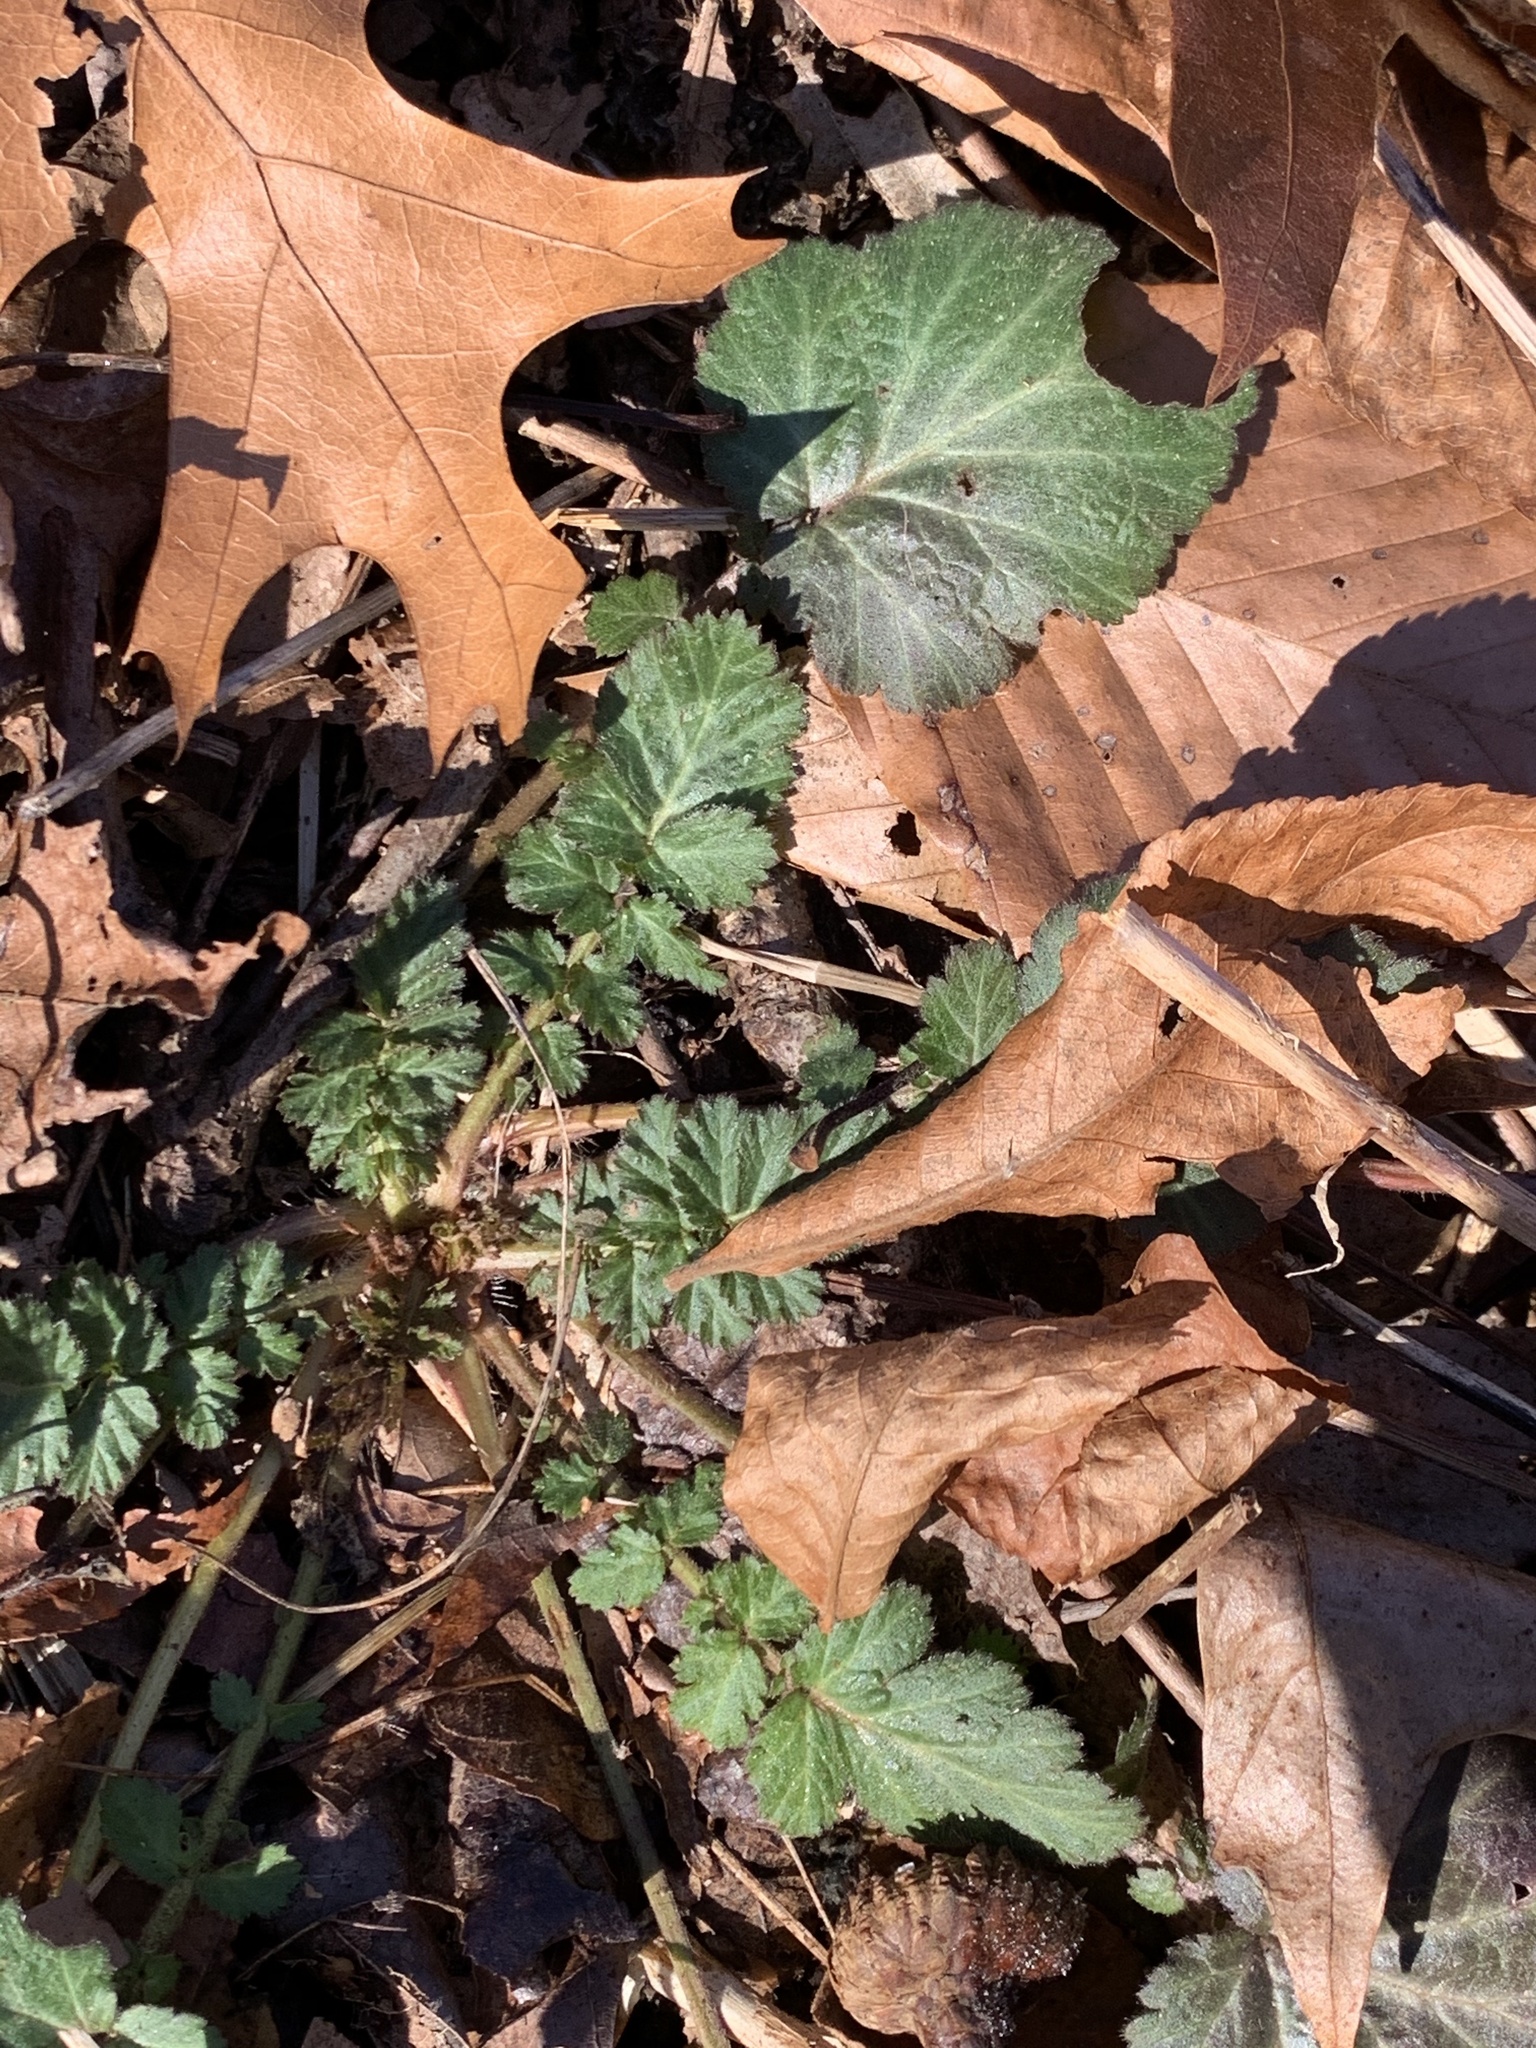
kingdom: Plantae
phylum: Tracheophyta
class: Magnoliopsida
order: Rosales
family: Rosaceae
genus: Geum
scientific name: Geum canadense
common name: White avens
